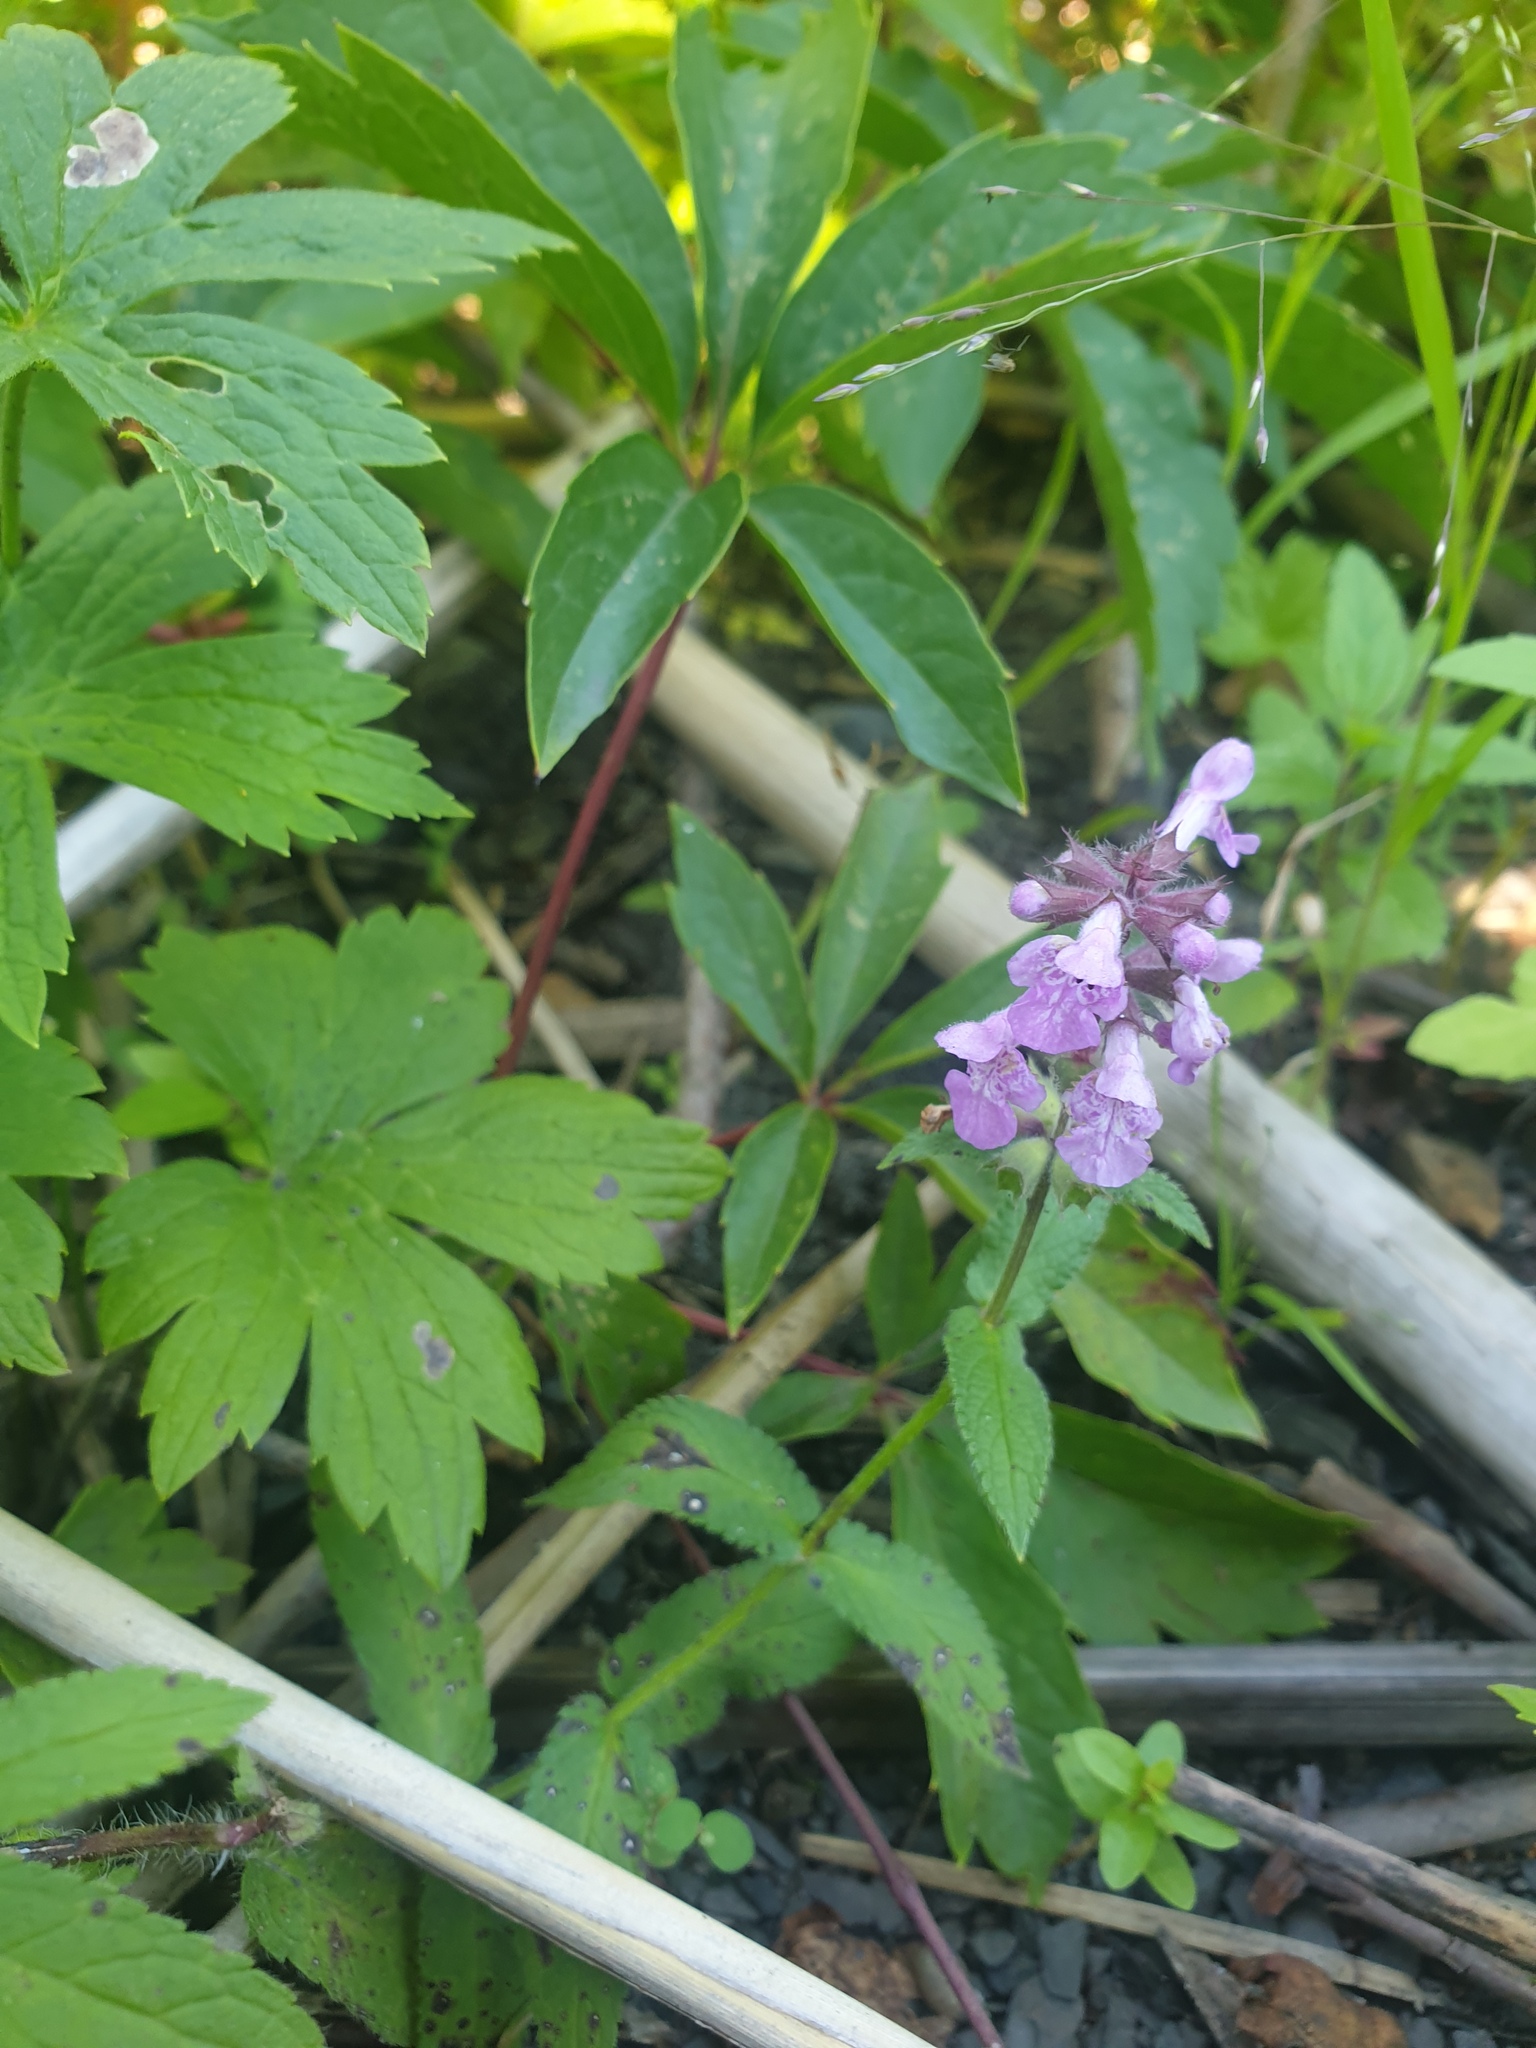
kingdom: Plantae
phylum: Tracheophyta
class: Magnoliopsida
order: Lamiales
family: Lamiaceae
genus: Stachys
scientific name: Stachys palustris
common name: Marsh woundwort
